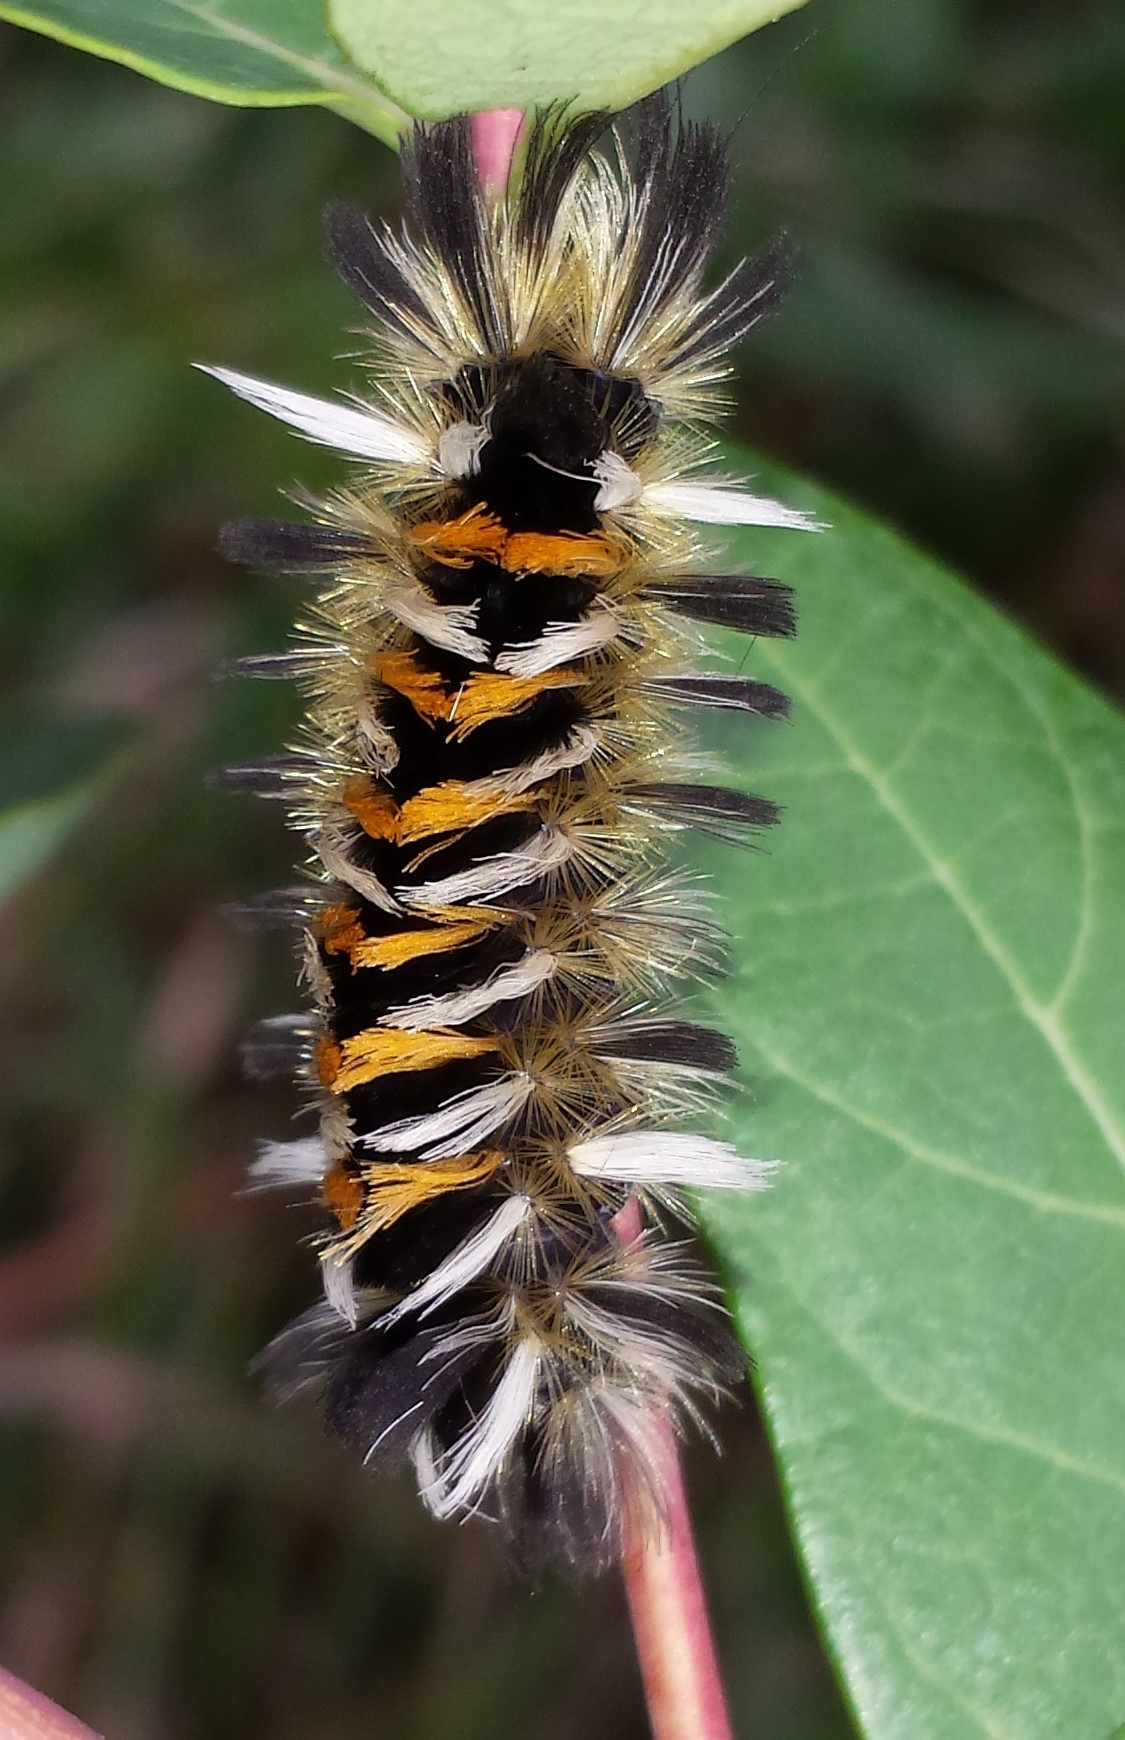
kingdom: Animalia
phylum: Arthropoda
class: Insecta
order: Lepidoptera
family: Erebidae
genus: Euchaetes
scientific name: Euchaetes egle
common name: Milkweed tussock moth
